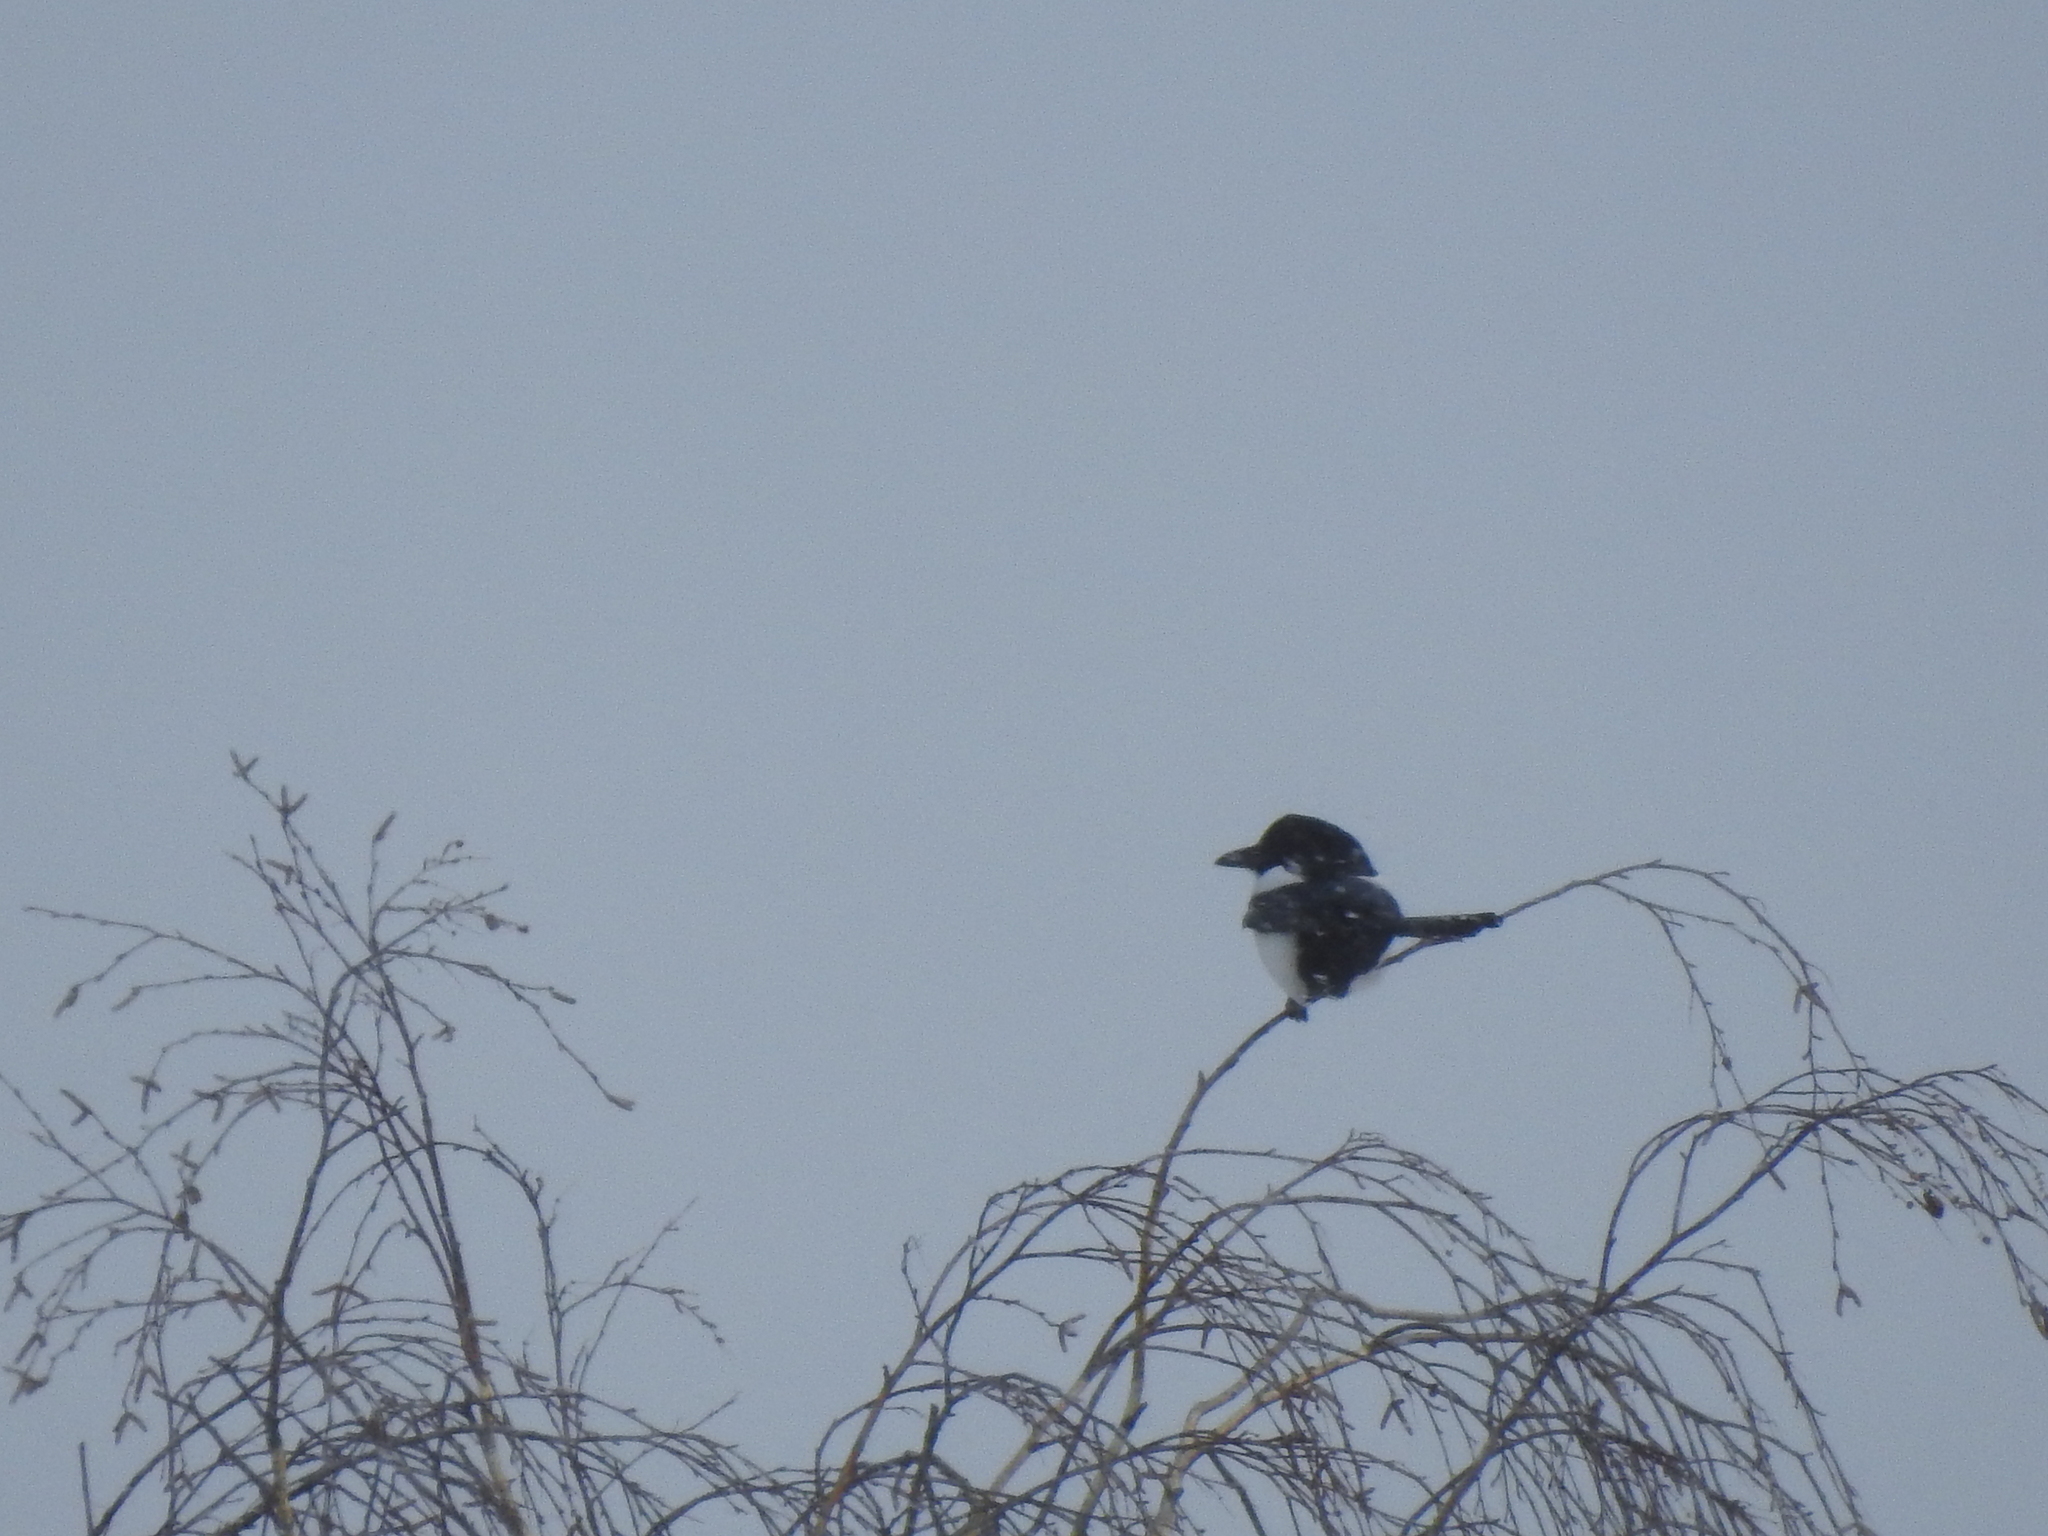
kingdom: Animalia
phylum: Chordata
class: Aves
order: Passeriformes
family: Corvidae
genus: Pica
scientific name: Pica pica
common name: Eurasian magpie
